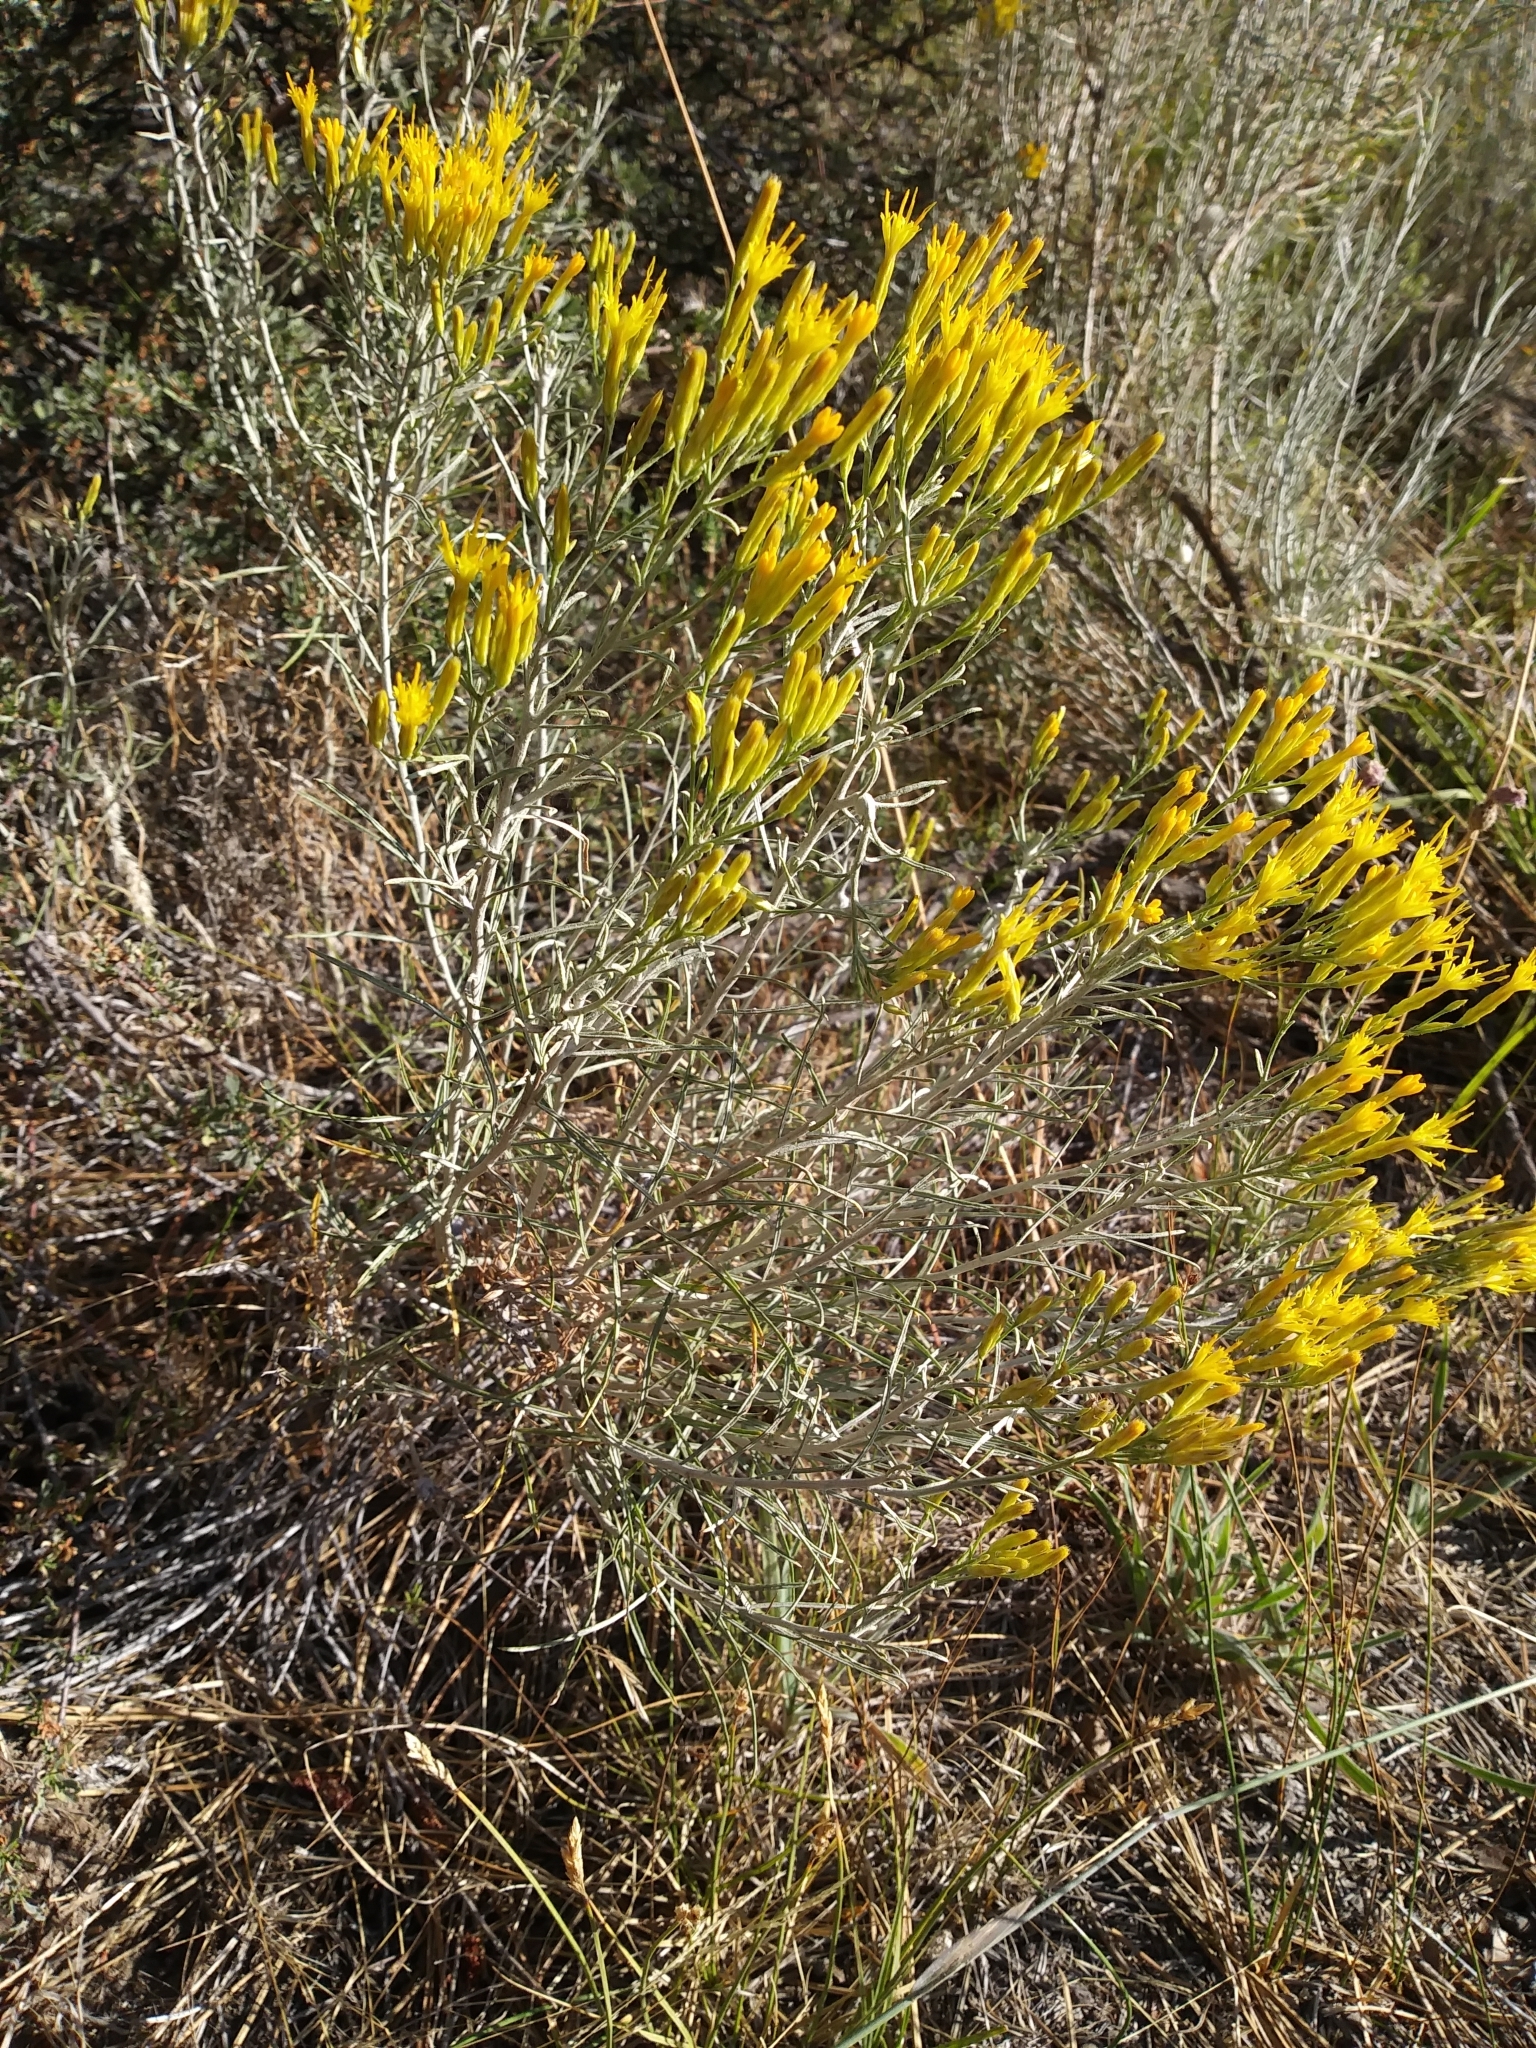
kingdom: Plantae
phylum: Tracheophyta
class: Magnoliopsida
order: Asterales
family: Asteraceae
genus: Ericameria
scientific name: Ericameria nauseosa
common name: Rubber rabbitbrush
